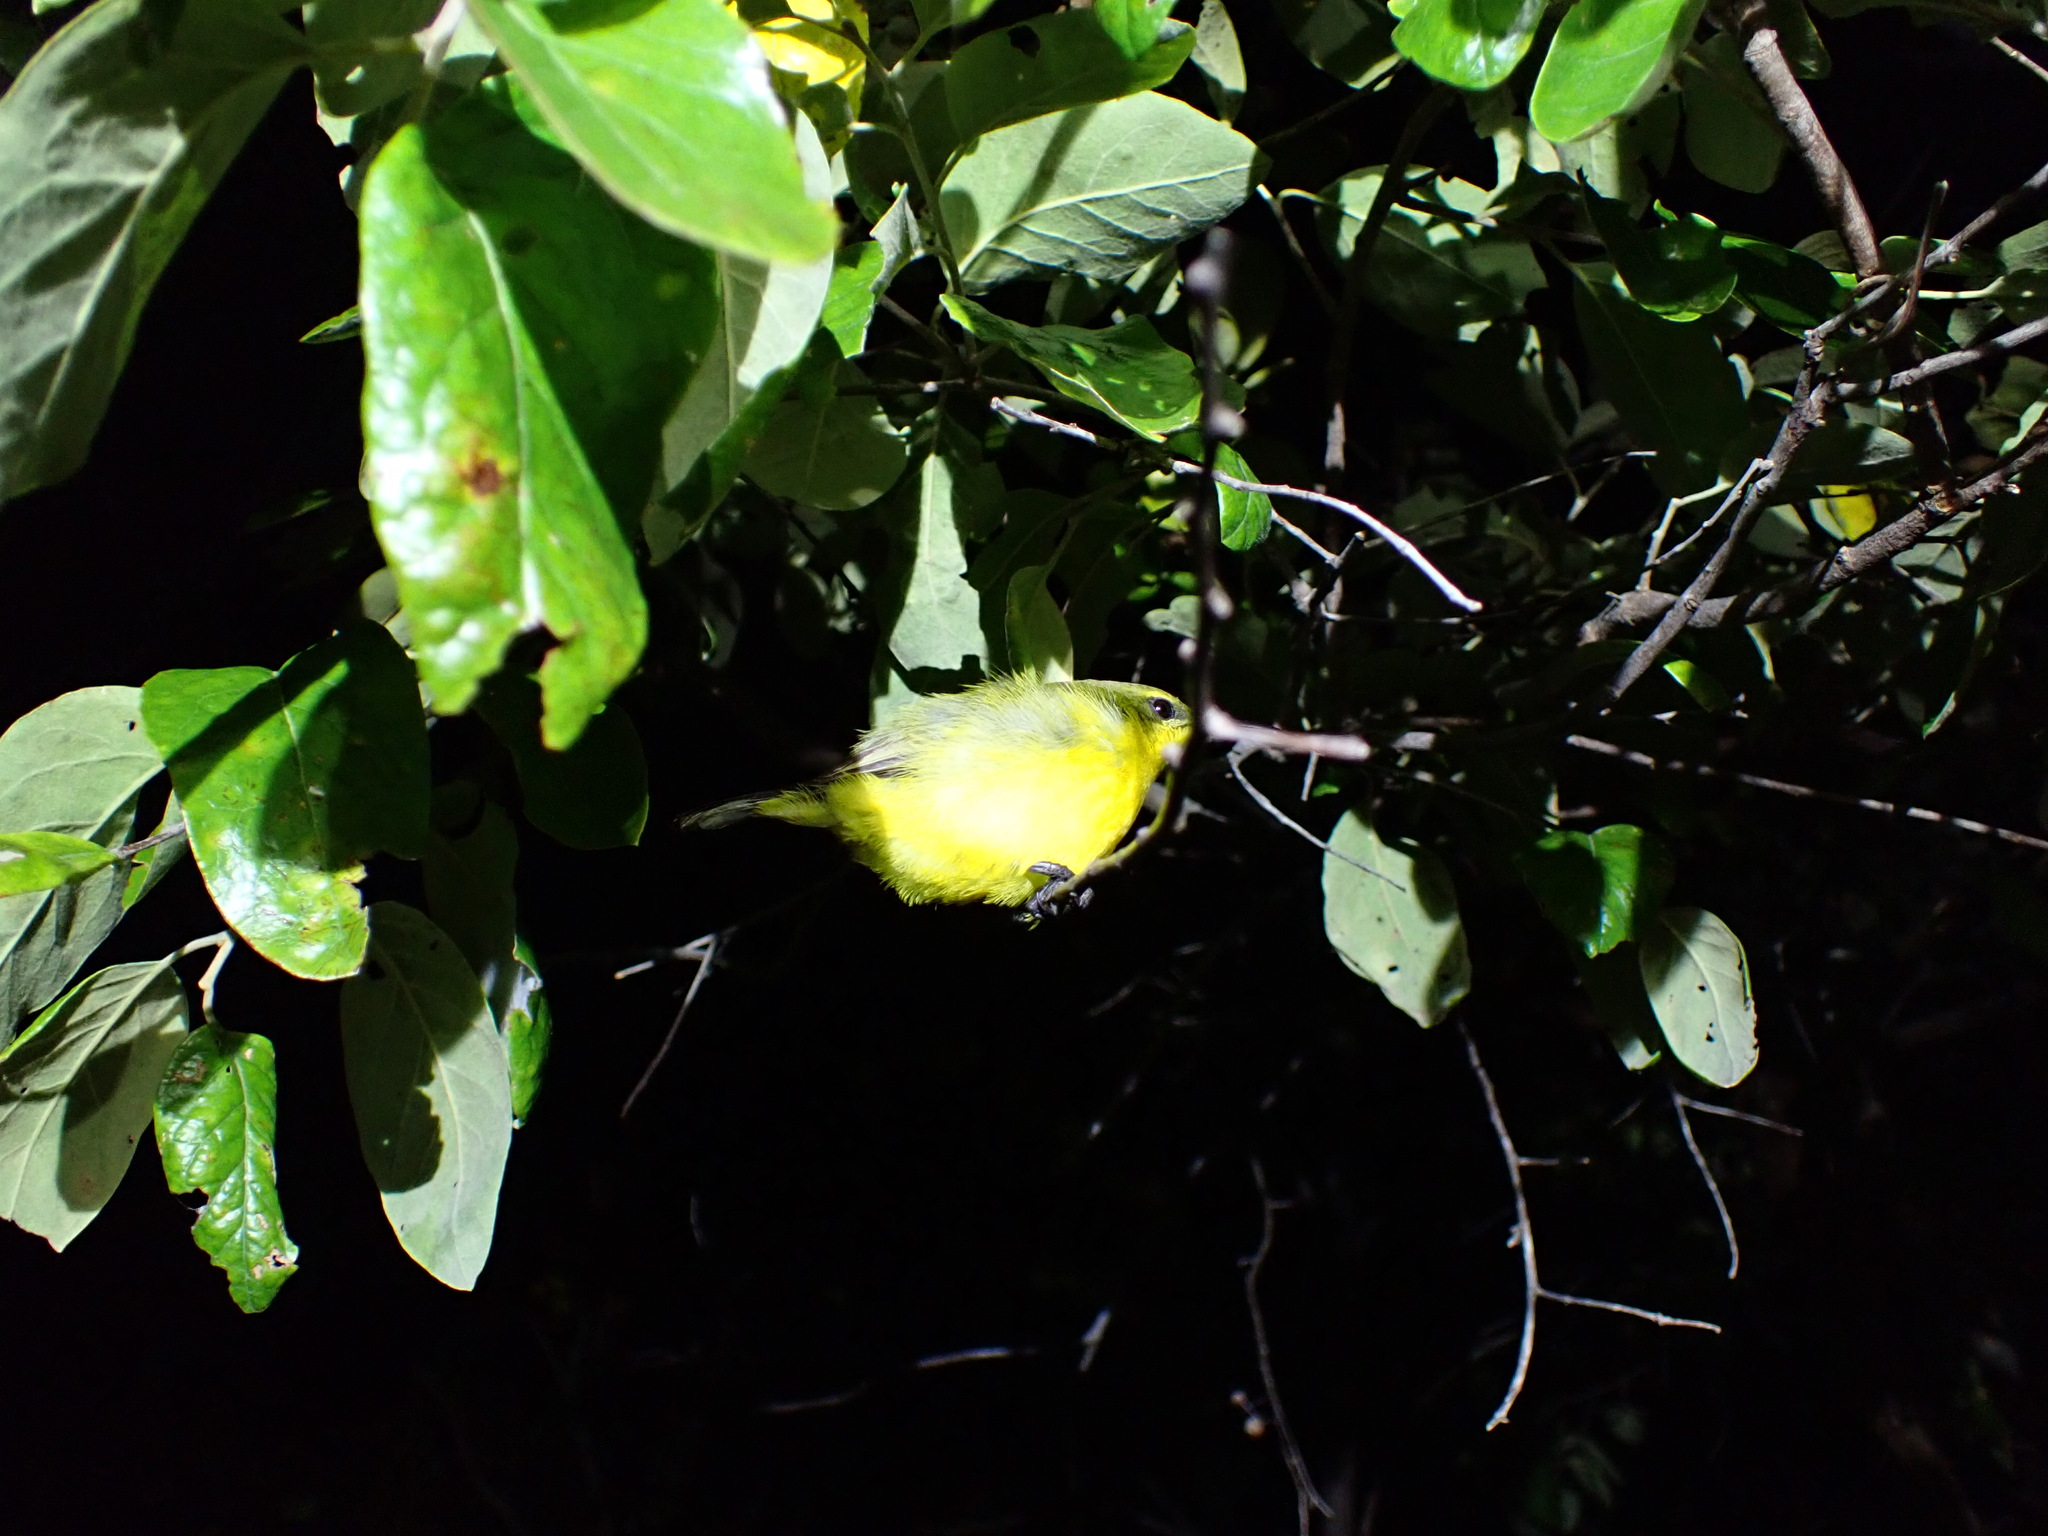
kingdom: Animalia
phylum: Chordata
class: Aves
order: Passeriformes
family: Nectariniidae
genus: Cinnyris
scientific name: Cinnyris
